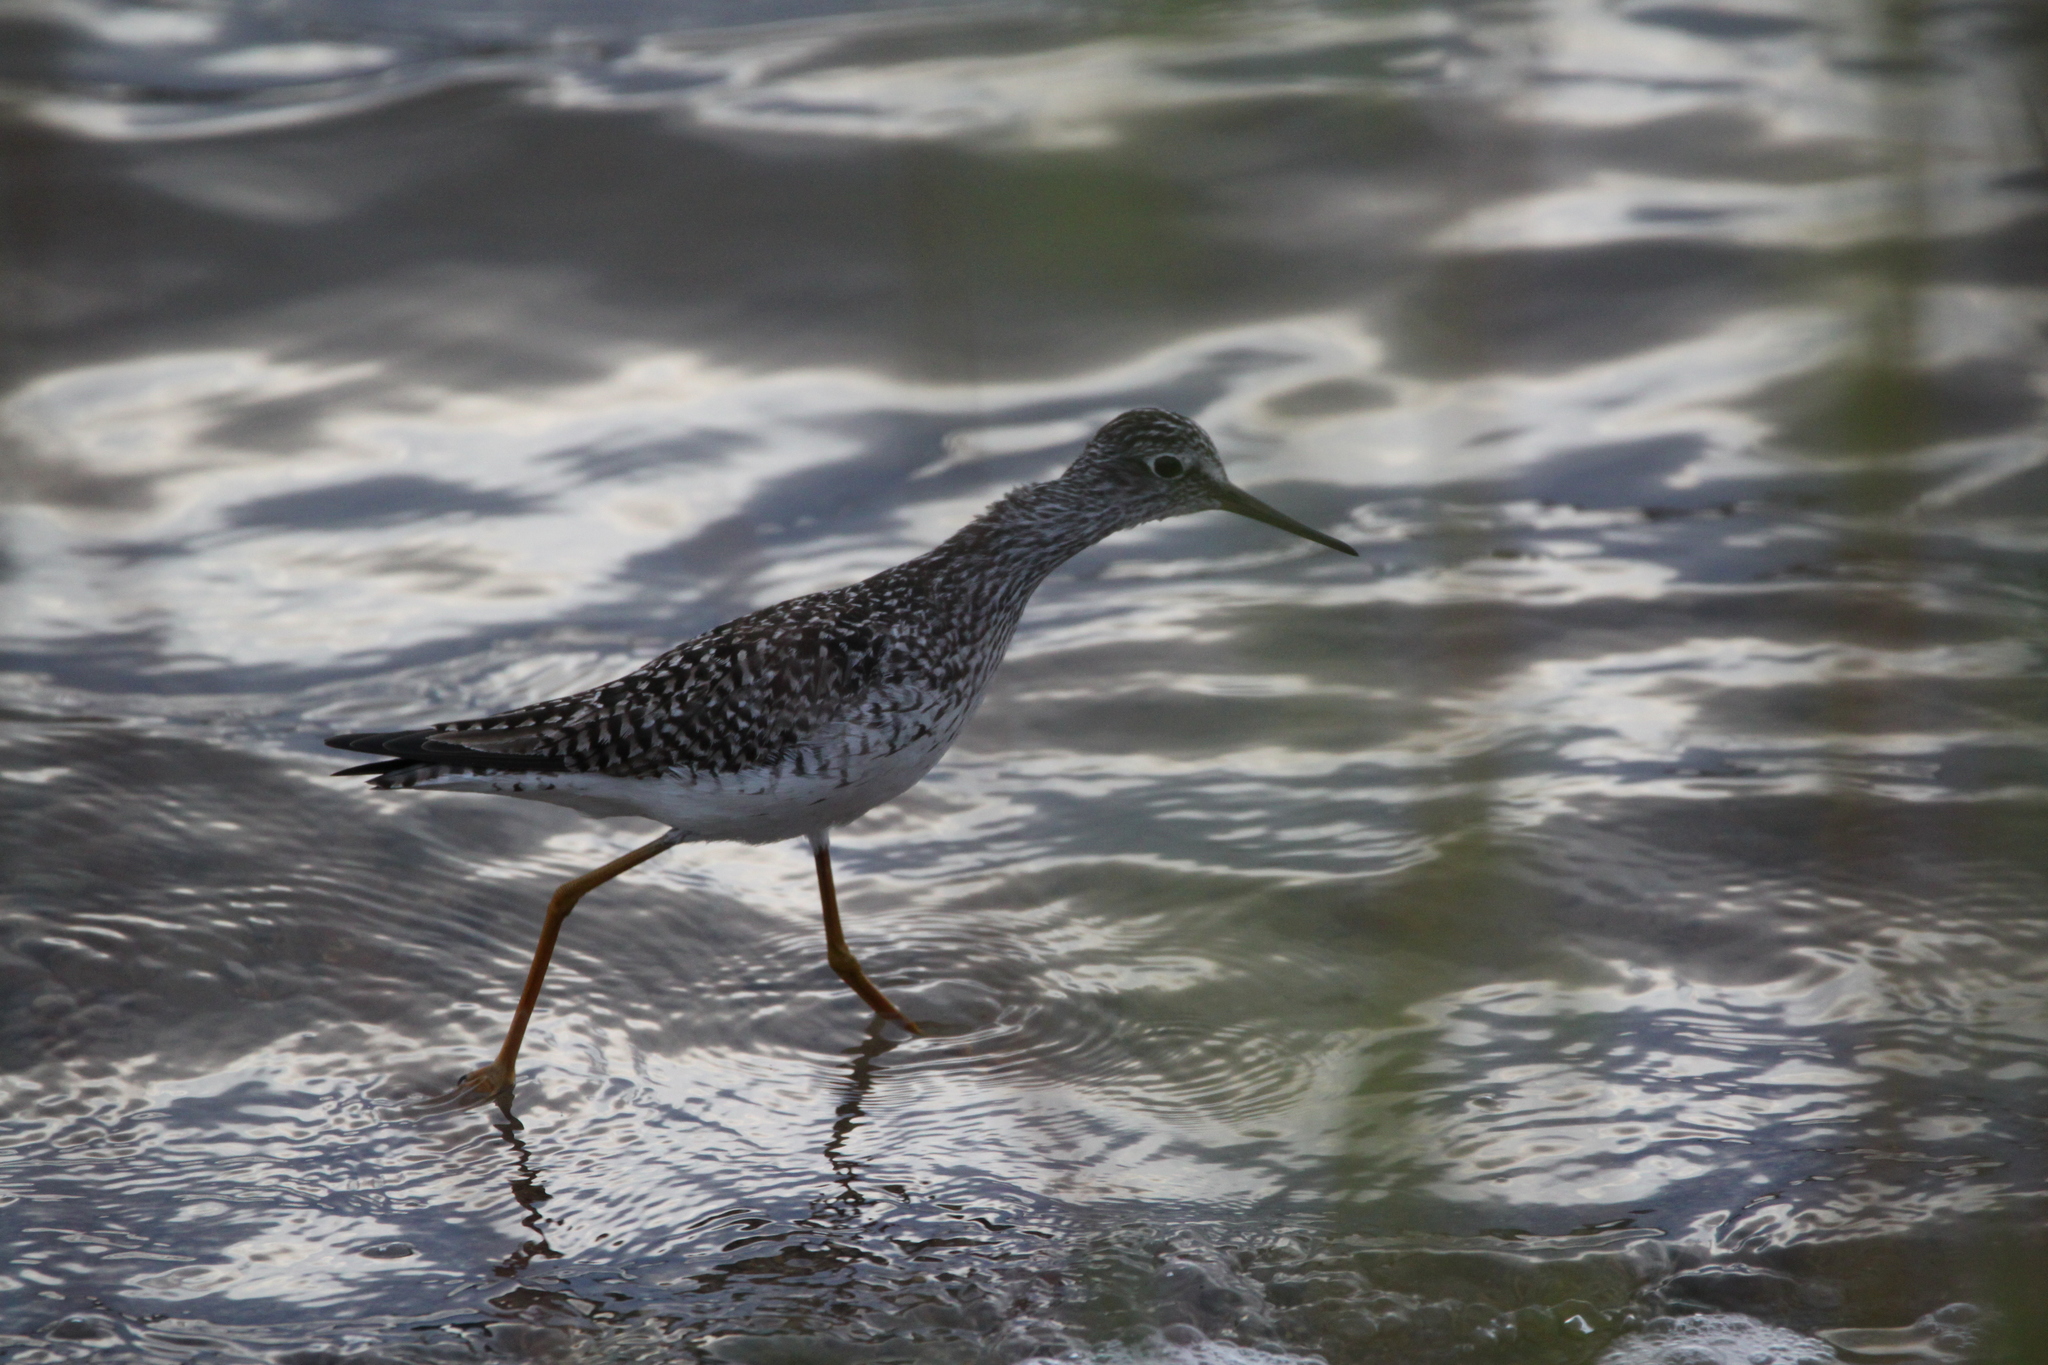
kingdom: Animalia
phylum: Chordata
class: Aves
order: Charadriiformes
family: Scolopacidae
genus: Tringa
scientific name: Tringa flavipes
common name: Lesser yellowlegs
